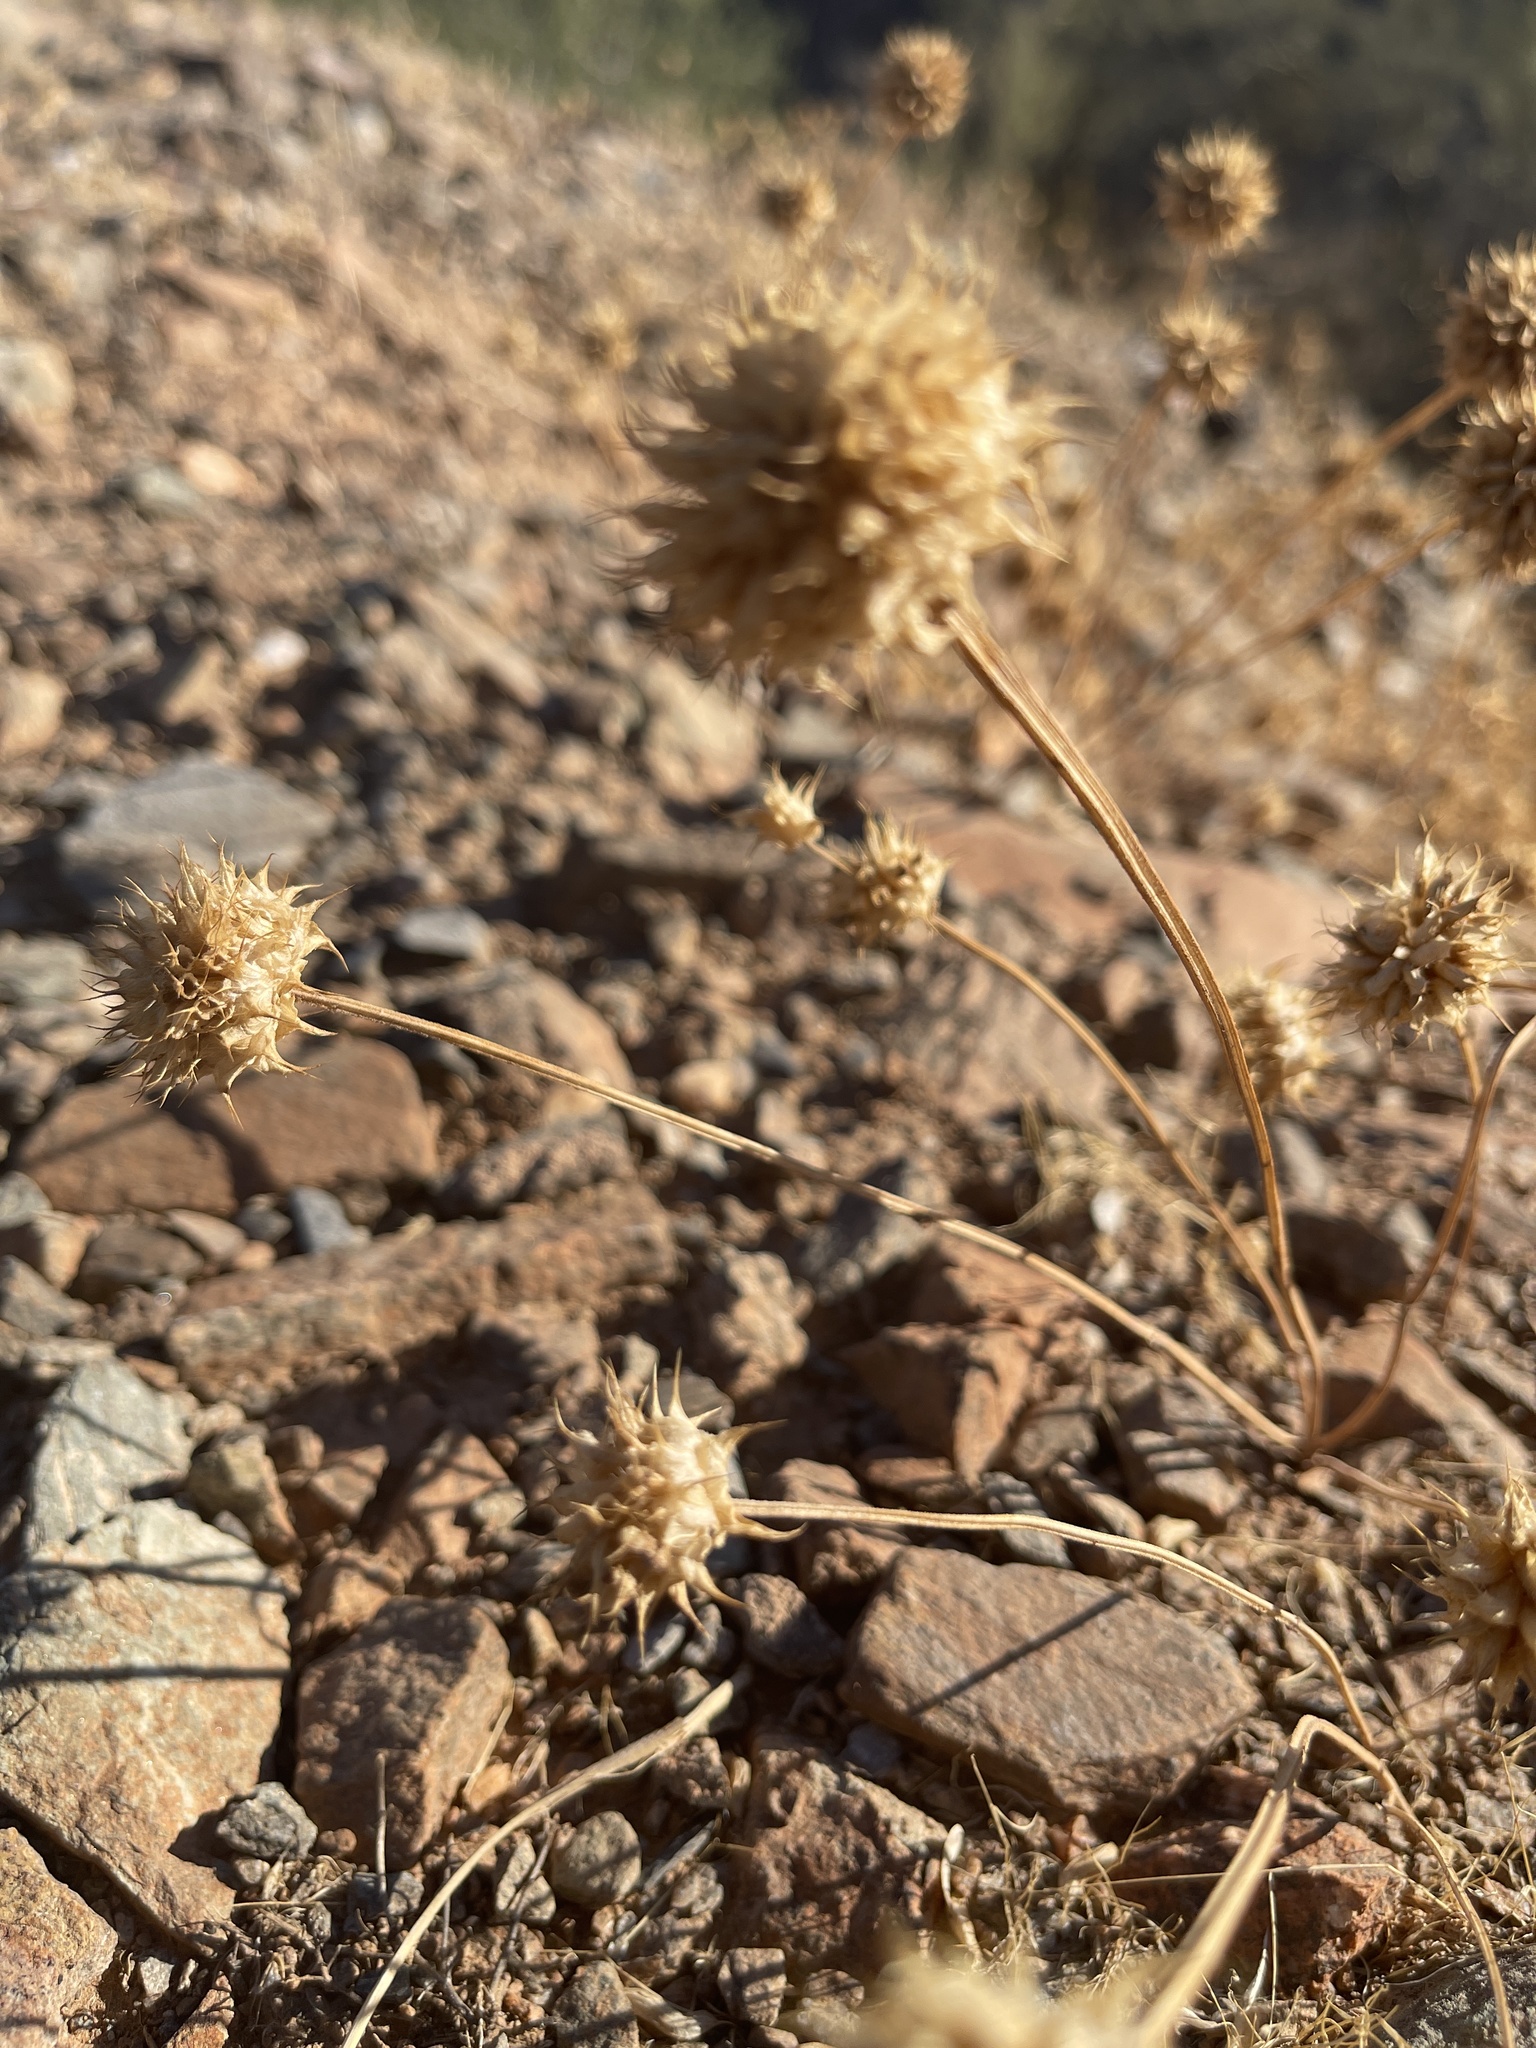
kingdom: Plantae
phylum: Tracheophyta
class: Magnoliopsida
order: Lamiales
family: Lamiaceae
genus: Salvia
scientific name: Salvia columbariae
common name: Chia
